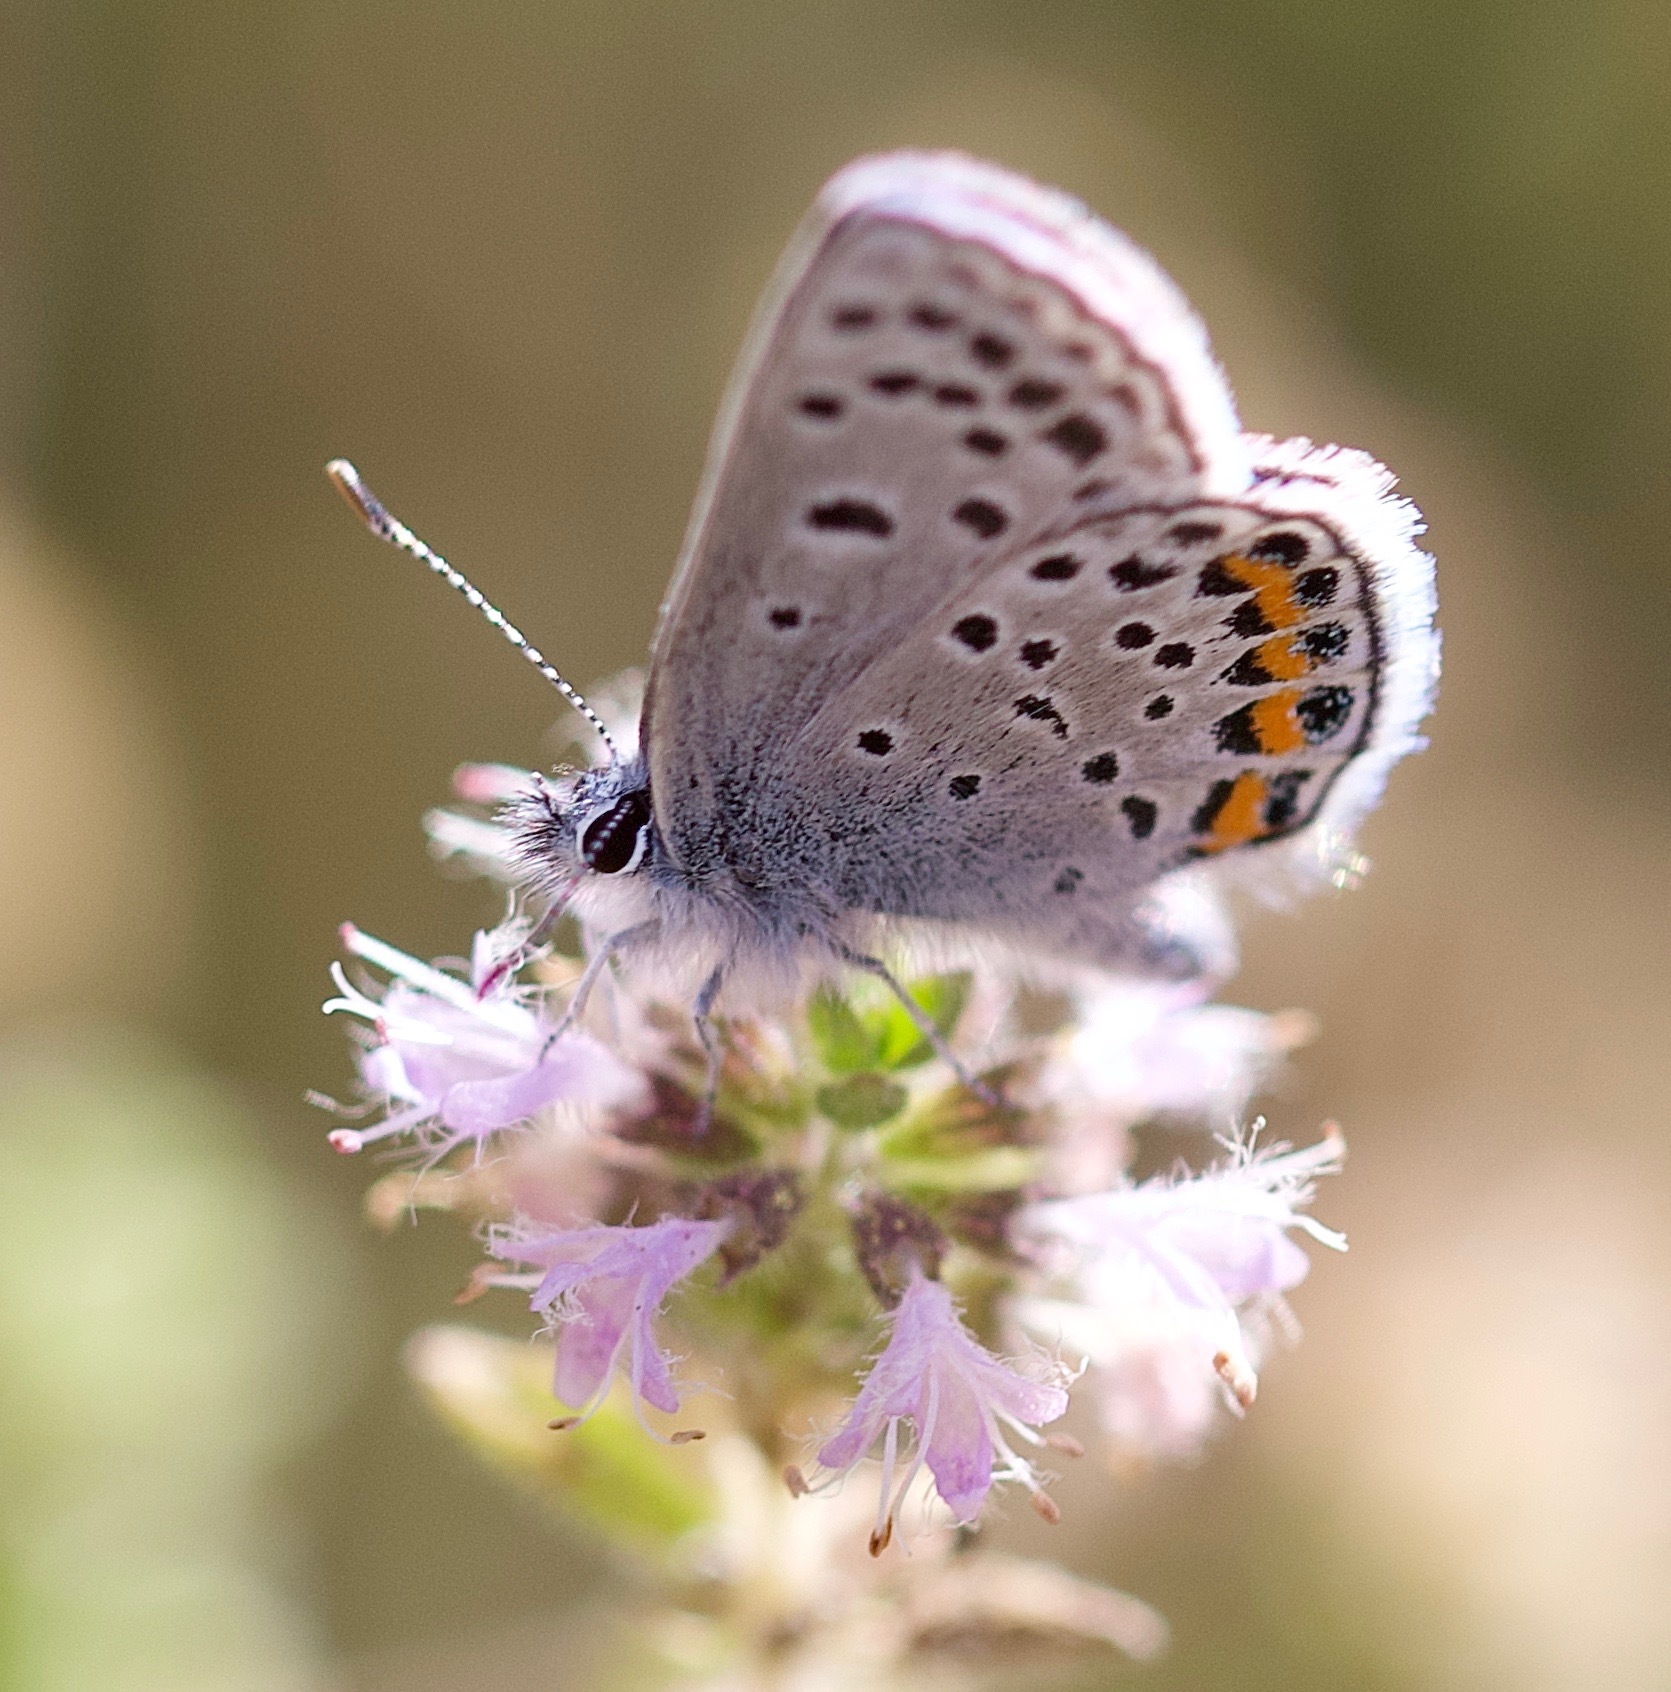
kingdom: Animalia
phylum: Arthropoda
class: Insecta
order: Lepidoptera
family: Lycaenidae
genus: Icaricia
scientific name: Icaricia acmon
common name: Acmon blue
